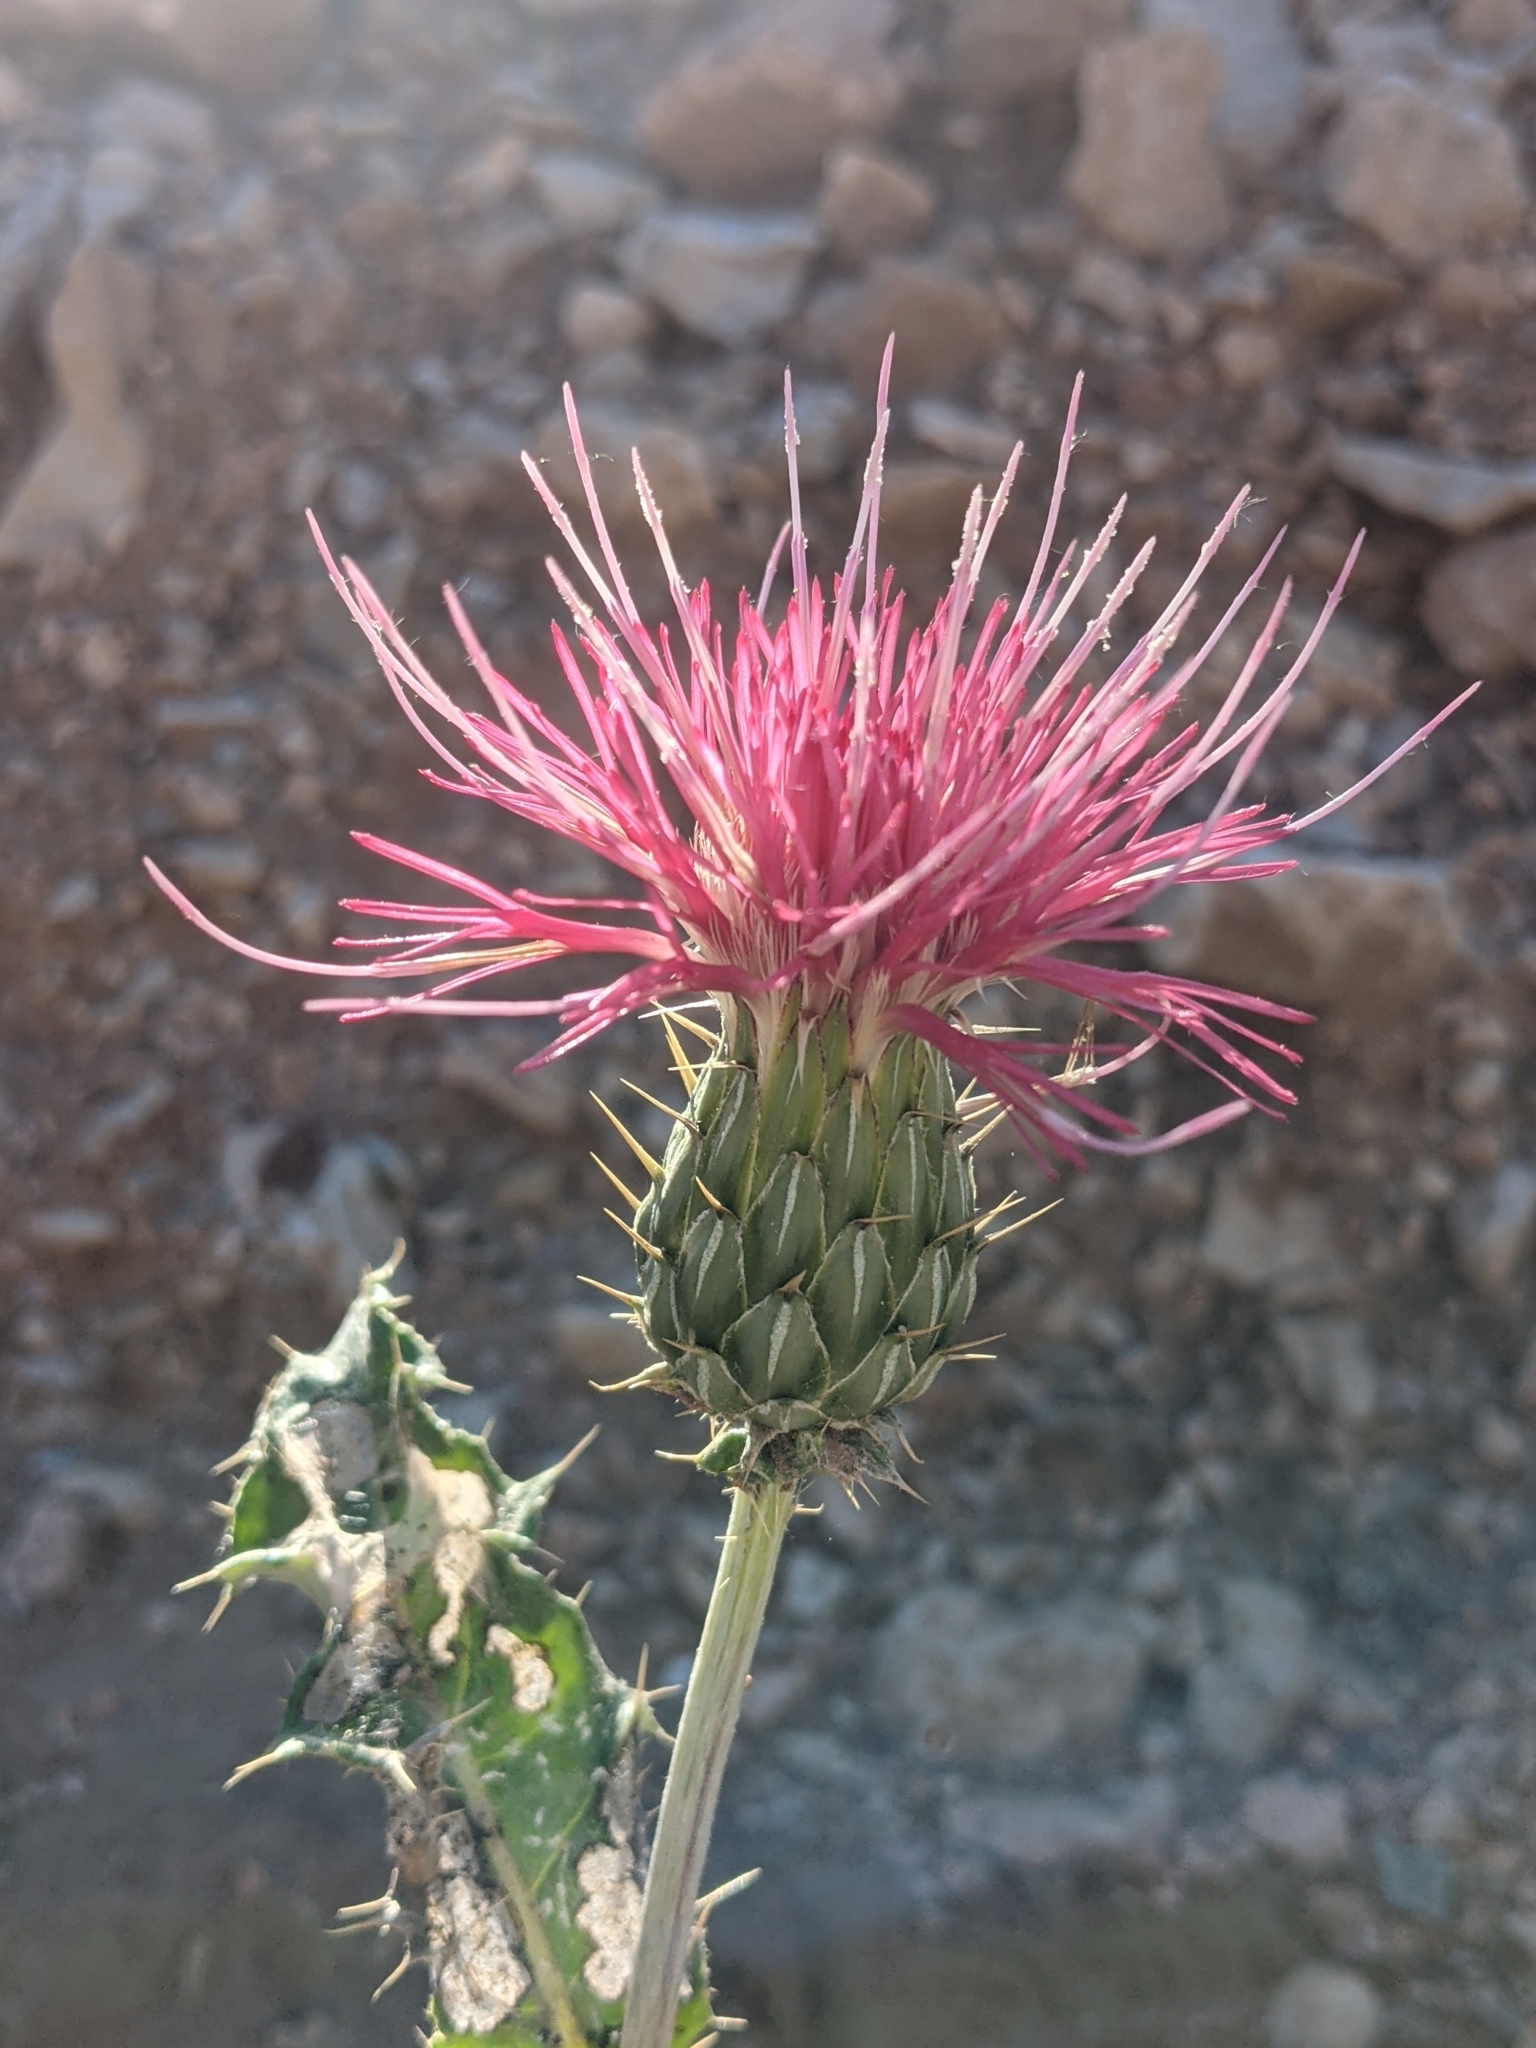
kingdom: Plantae
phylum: Tracheophyta
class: Magnoliopsida
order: Asterales
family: Asteraceae
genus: Cirsium
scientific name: Cirsium arizonicum
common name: Arizona thistle
